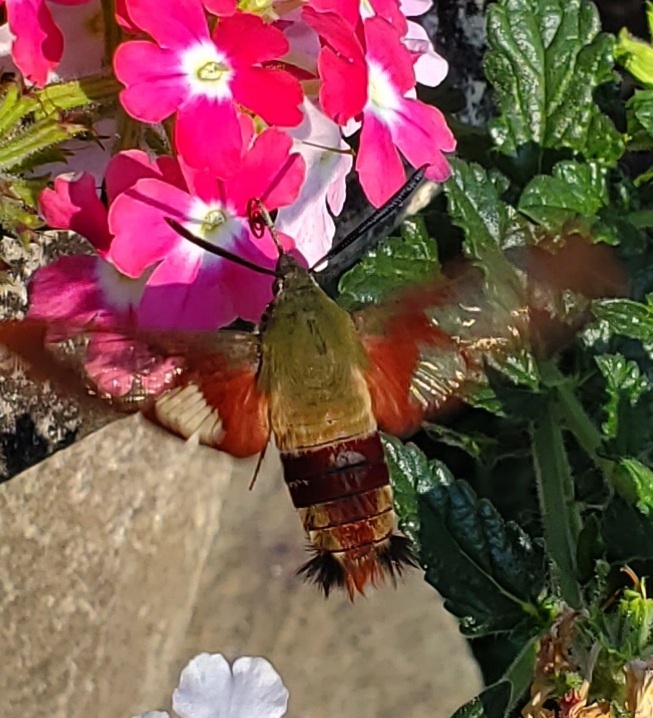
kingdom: Animalia
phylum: Arthropoda
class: Insecta
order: Lepidoptera
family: Sphingidae
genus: Hemaris
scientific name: Hemaris thysbe
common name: Common clear-wing
